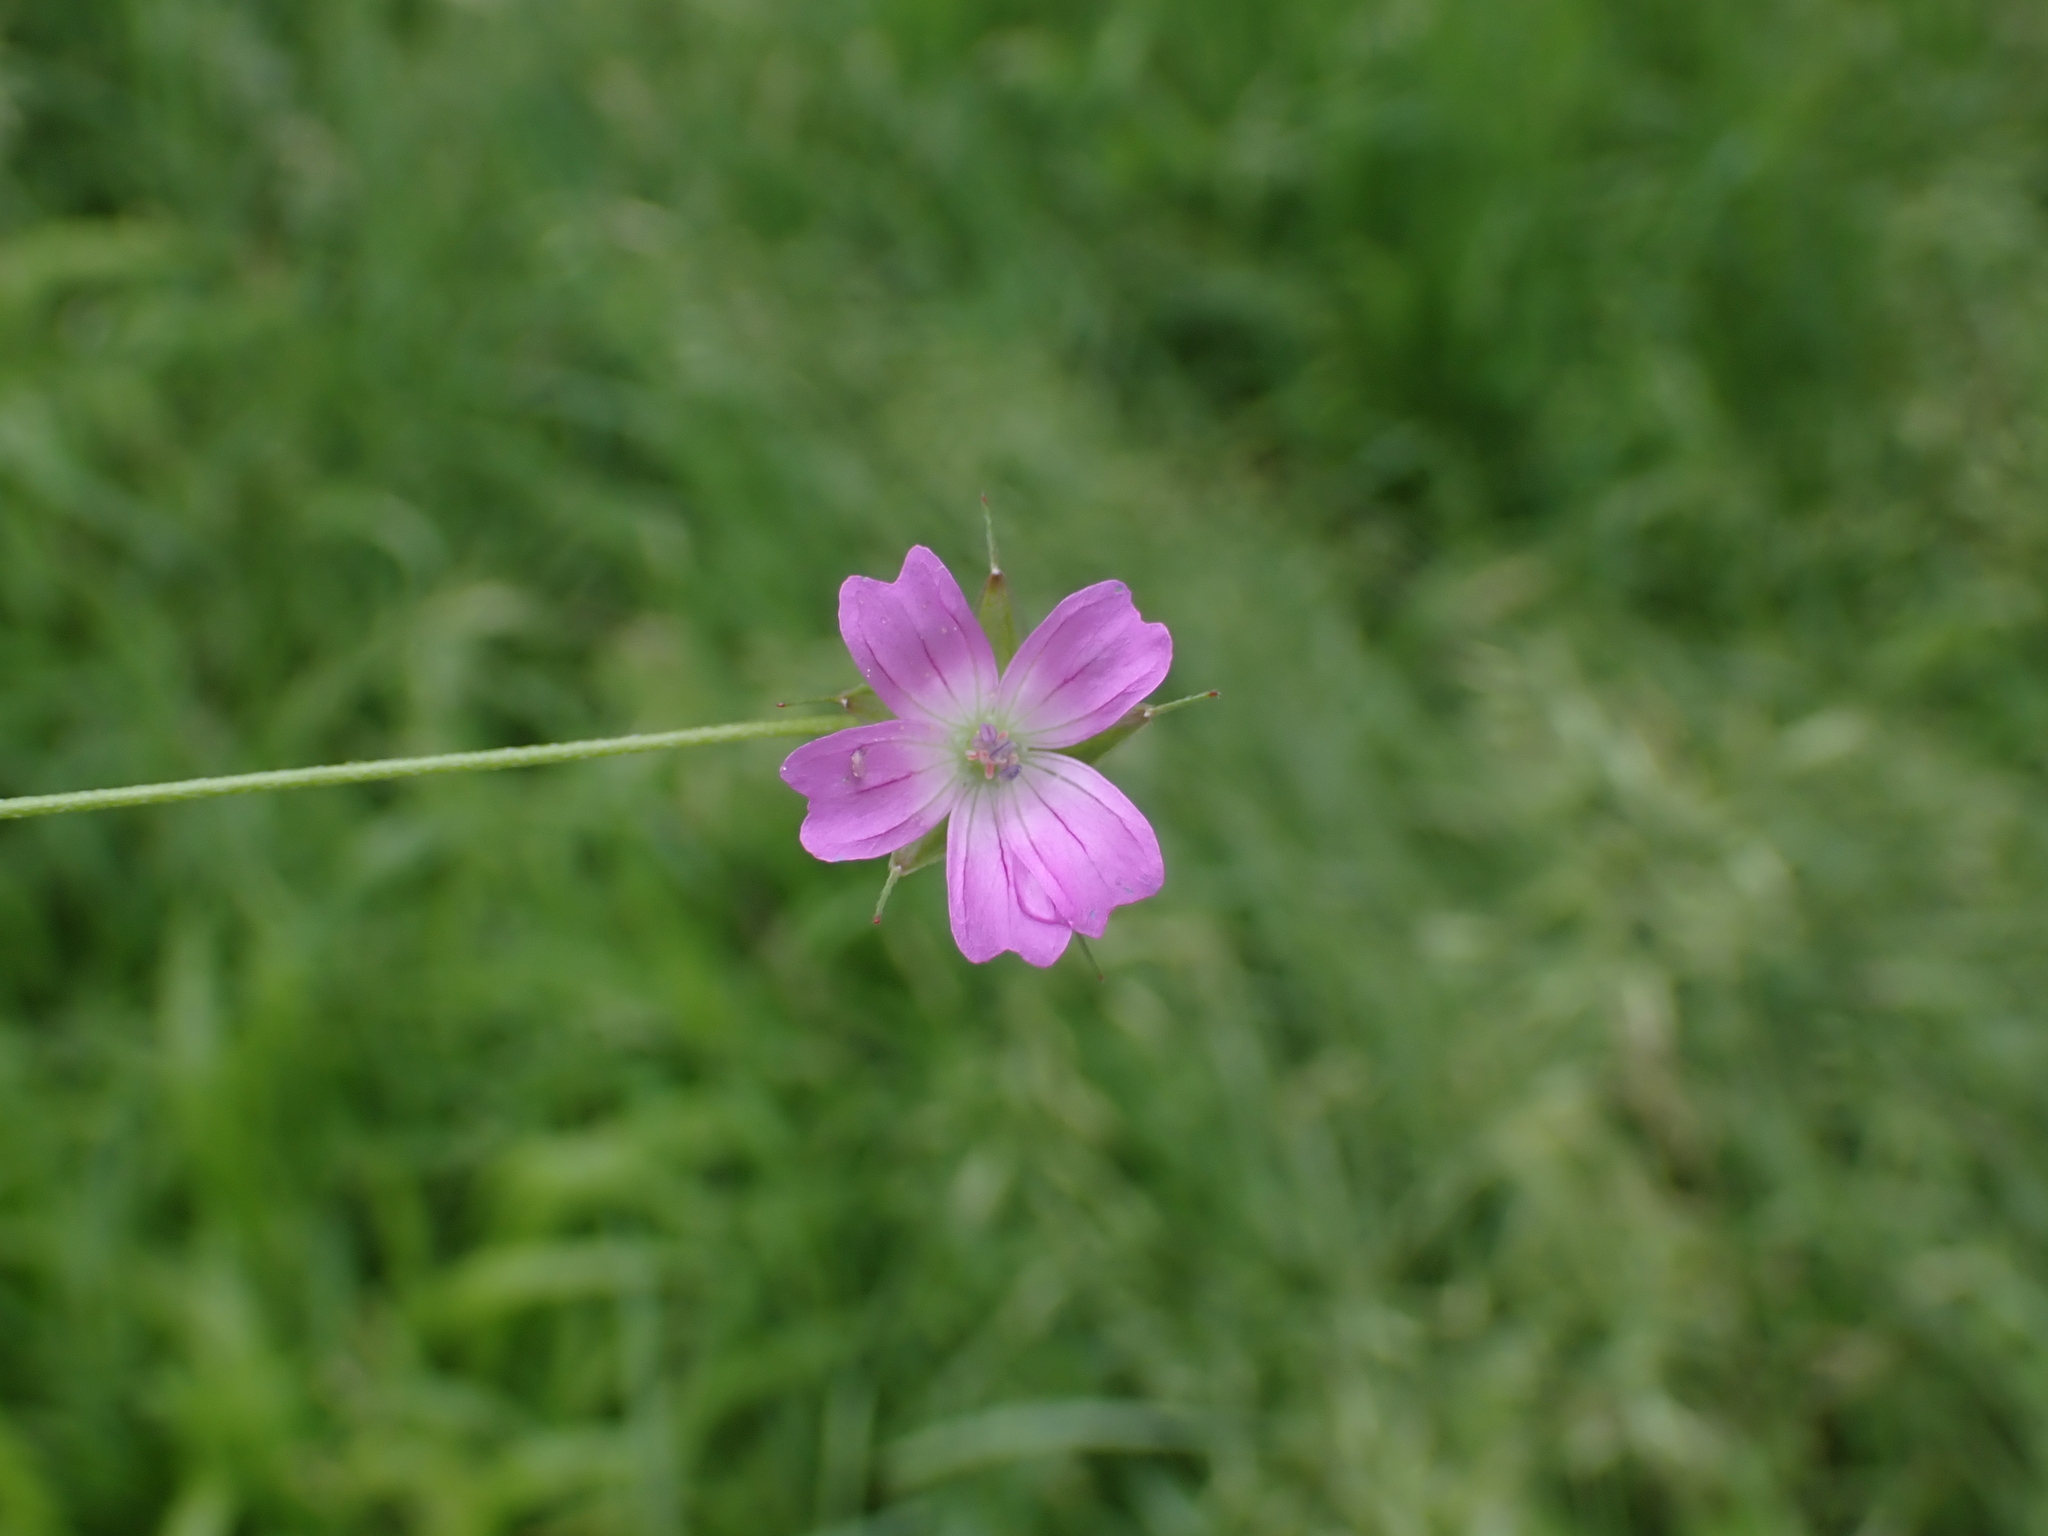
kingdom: Plantae
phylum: Tracheophyta
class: Magnoliopsida
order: Geraniales
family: Geraniaceae
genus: Geranium
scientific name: Geranium columbinum
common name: Long-stalked crane's-bill
